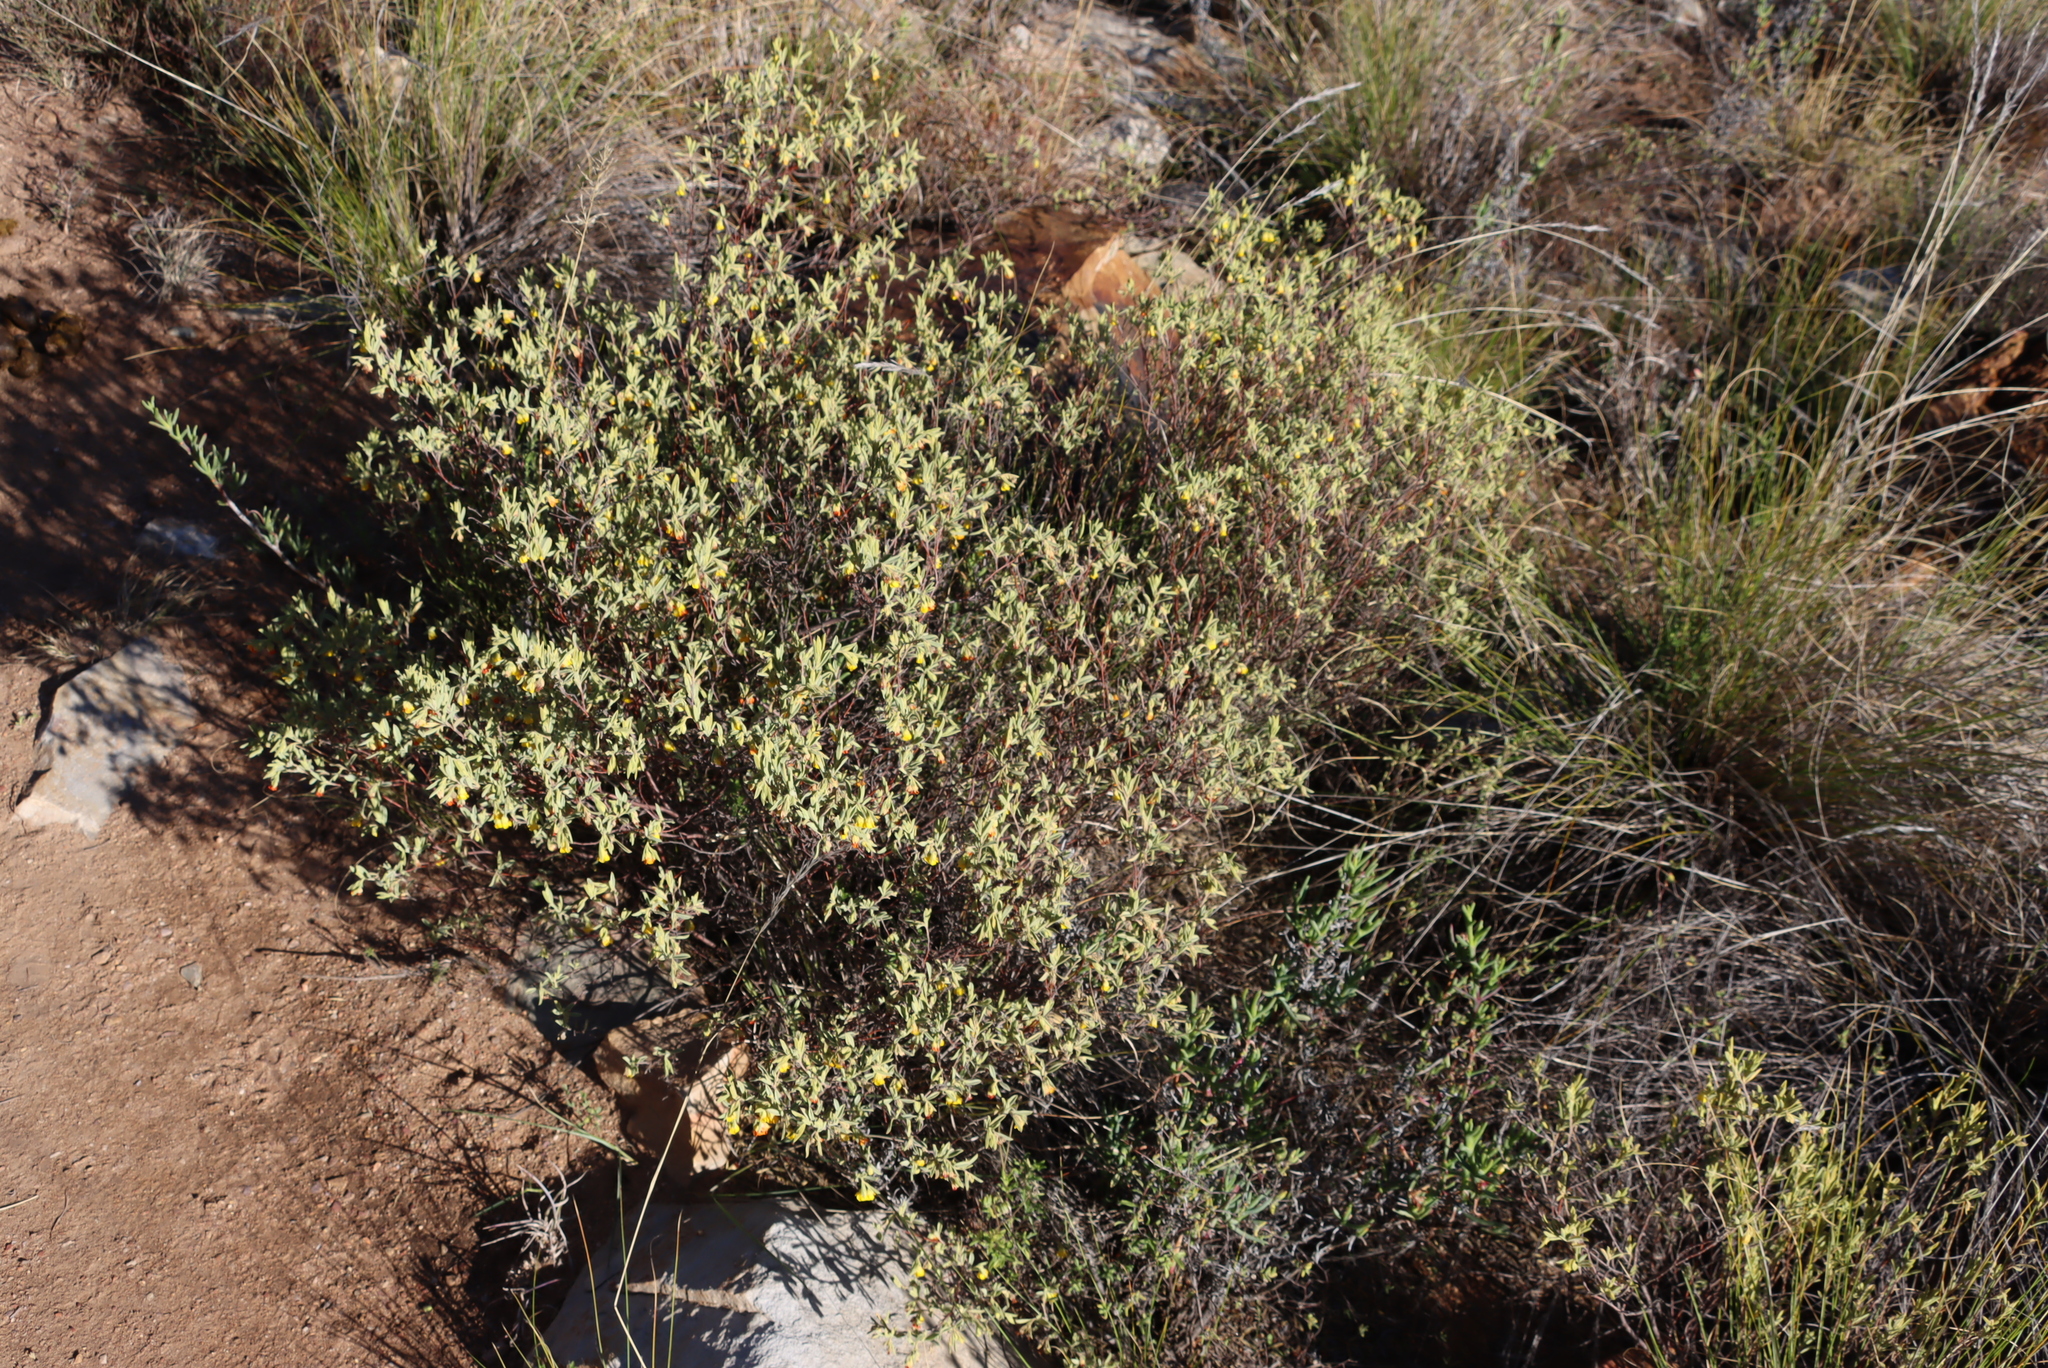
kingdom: Plantae
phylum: Tracheophyta
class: Magnoliopsida
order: Malvales
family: Malvaceae
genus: Hermannia
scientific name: Hermannia velutina
